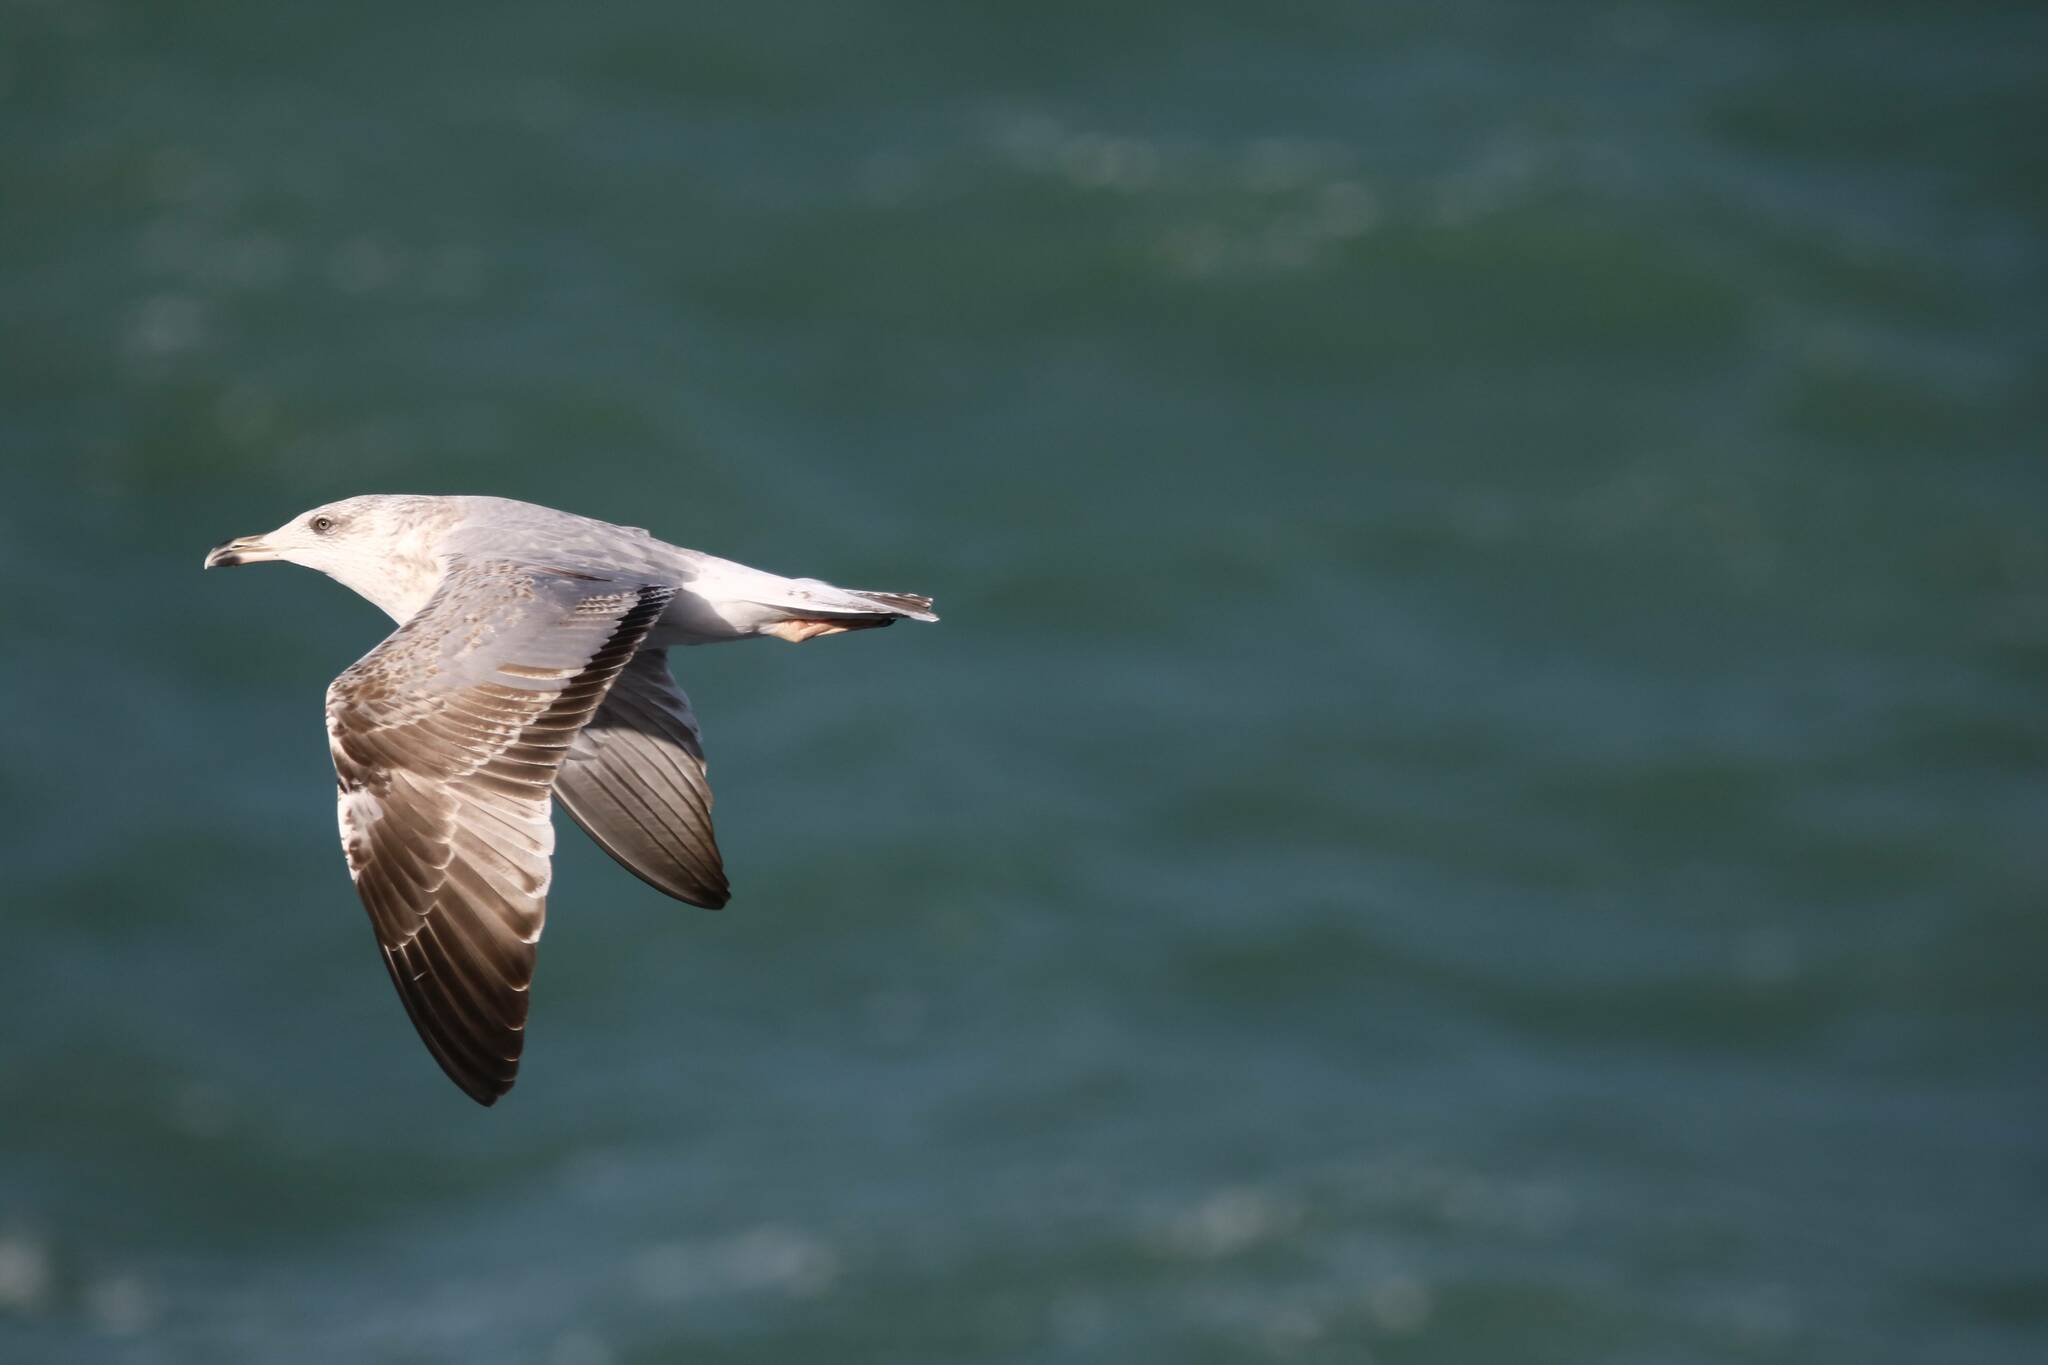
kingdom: Animalia
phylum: Chordata
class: Aves
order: Charadriiformes
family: Laridae
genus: Larus
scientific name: Larus michahellis
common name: Yellow-legged gull
